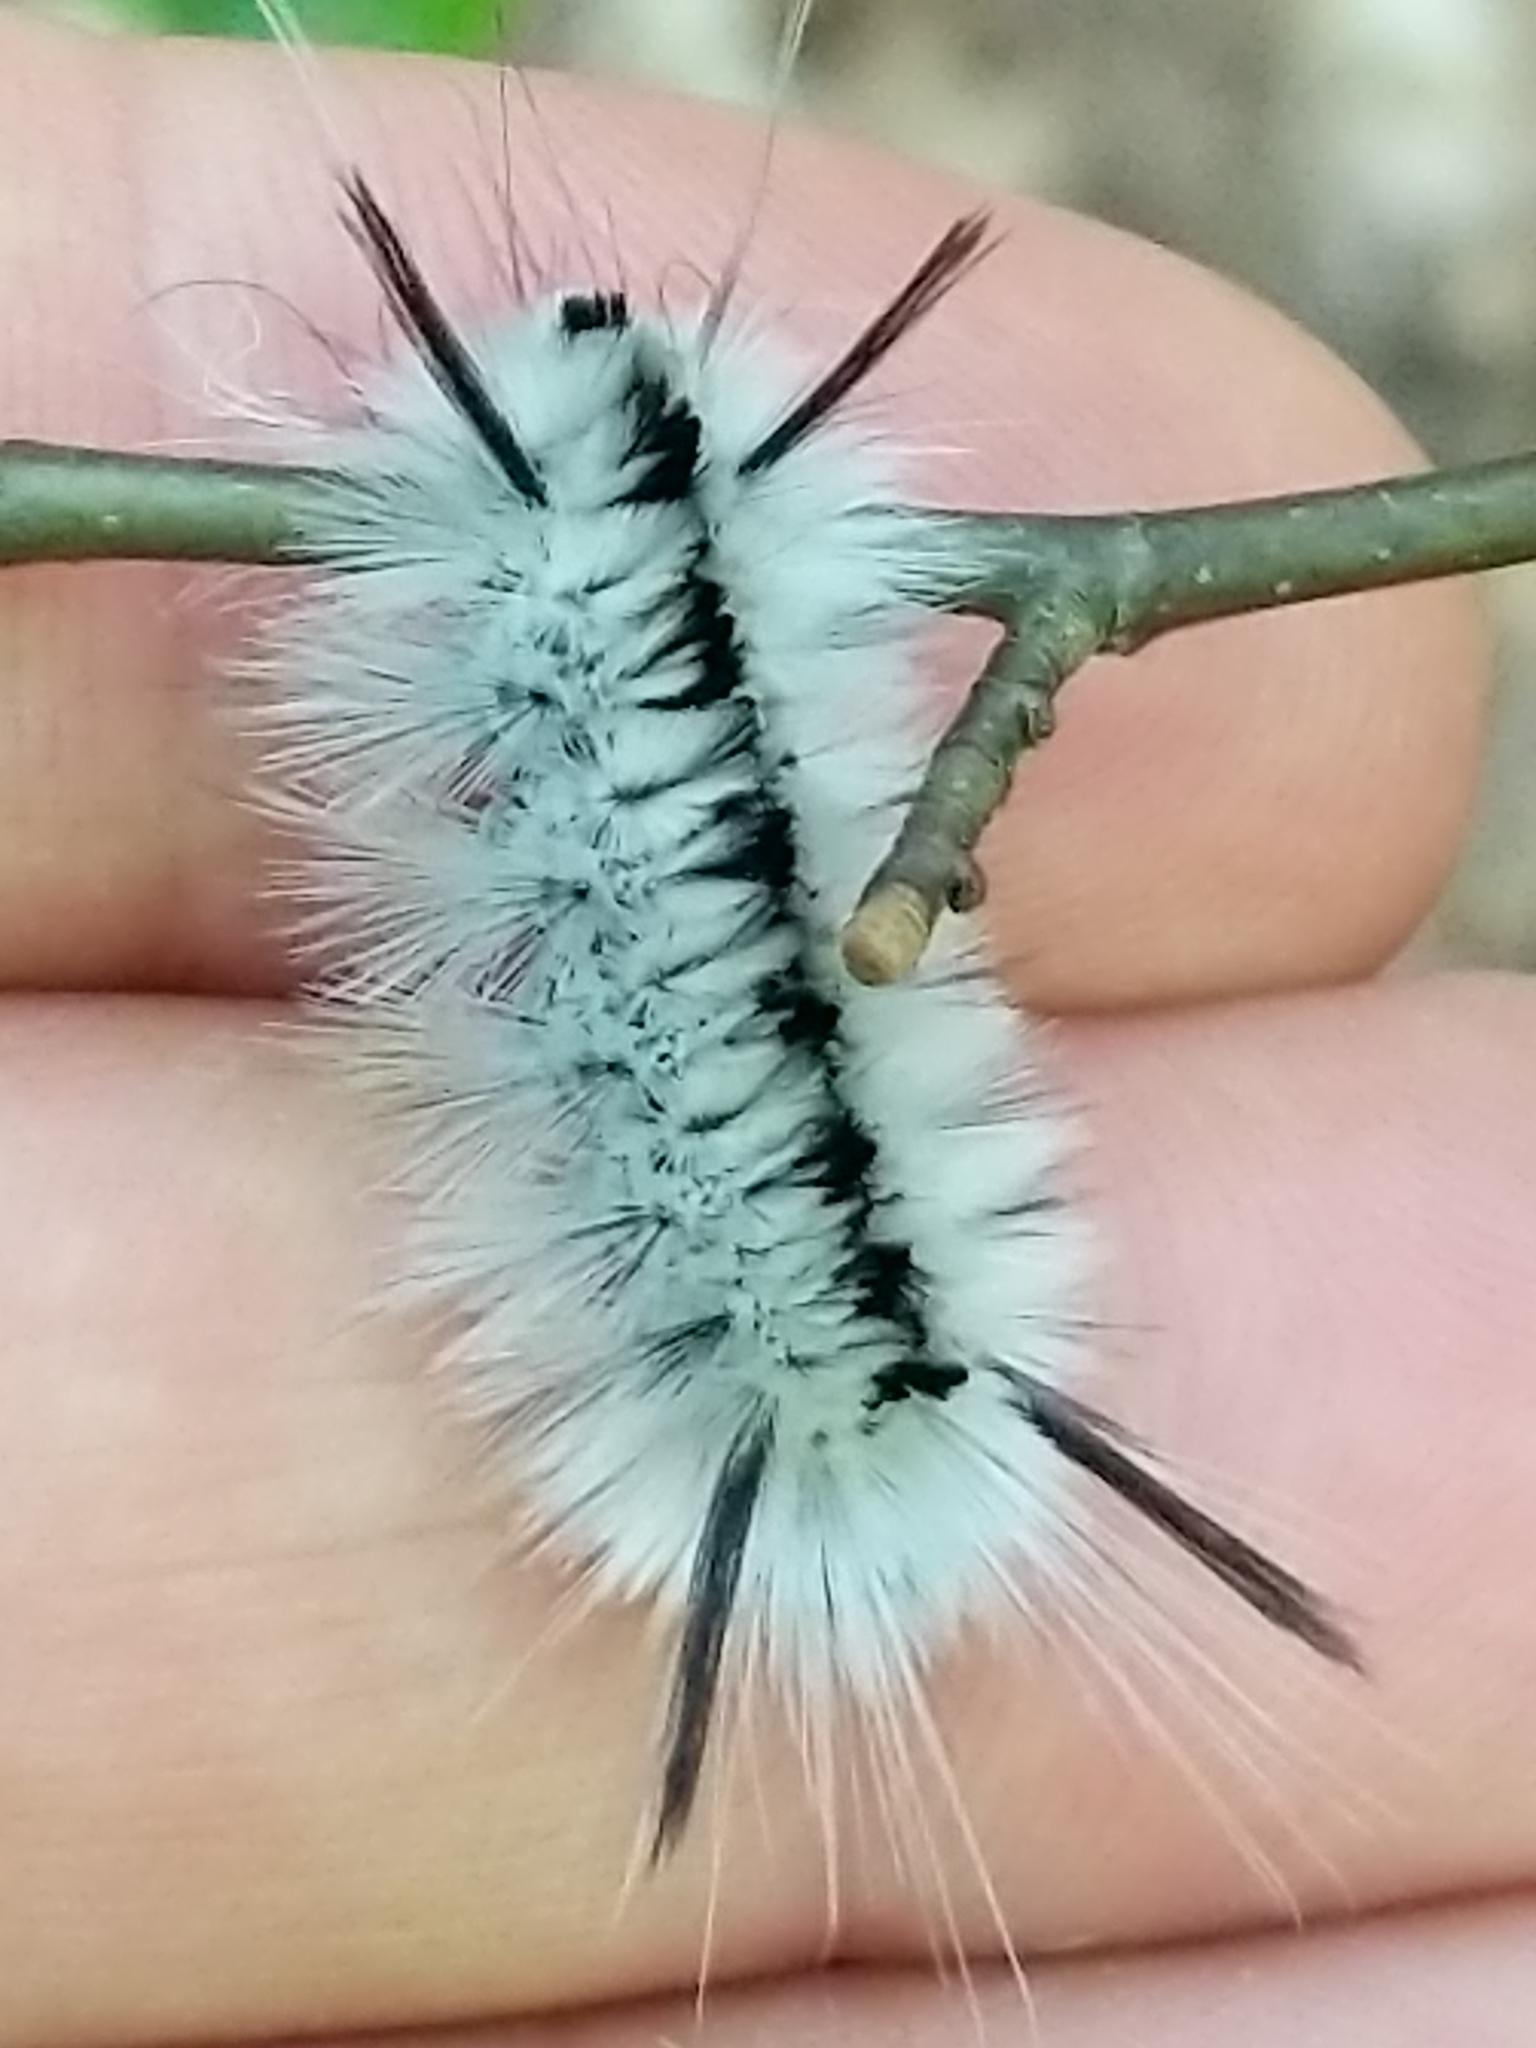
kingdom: Animalia
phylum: Arthropoda
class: Insecta
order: Lepidoptera
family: Erebidae
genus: Lophocampa
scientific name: Lophocampa caryae
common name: Hickory tussock moth
